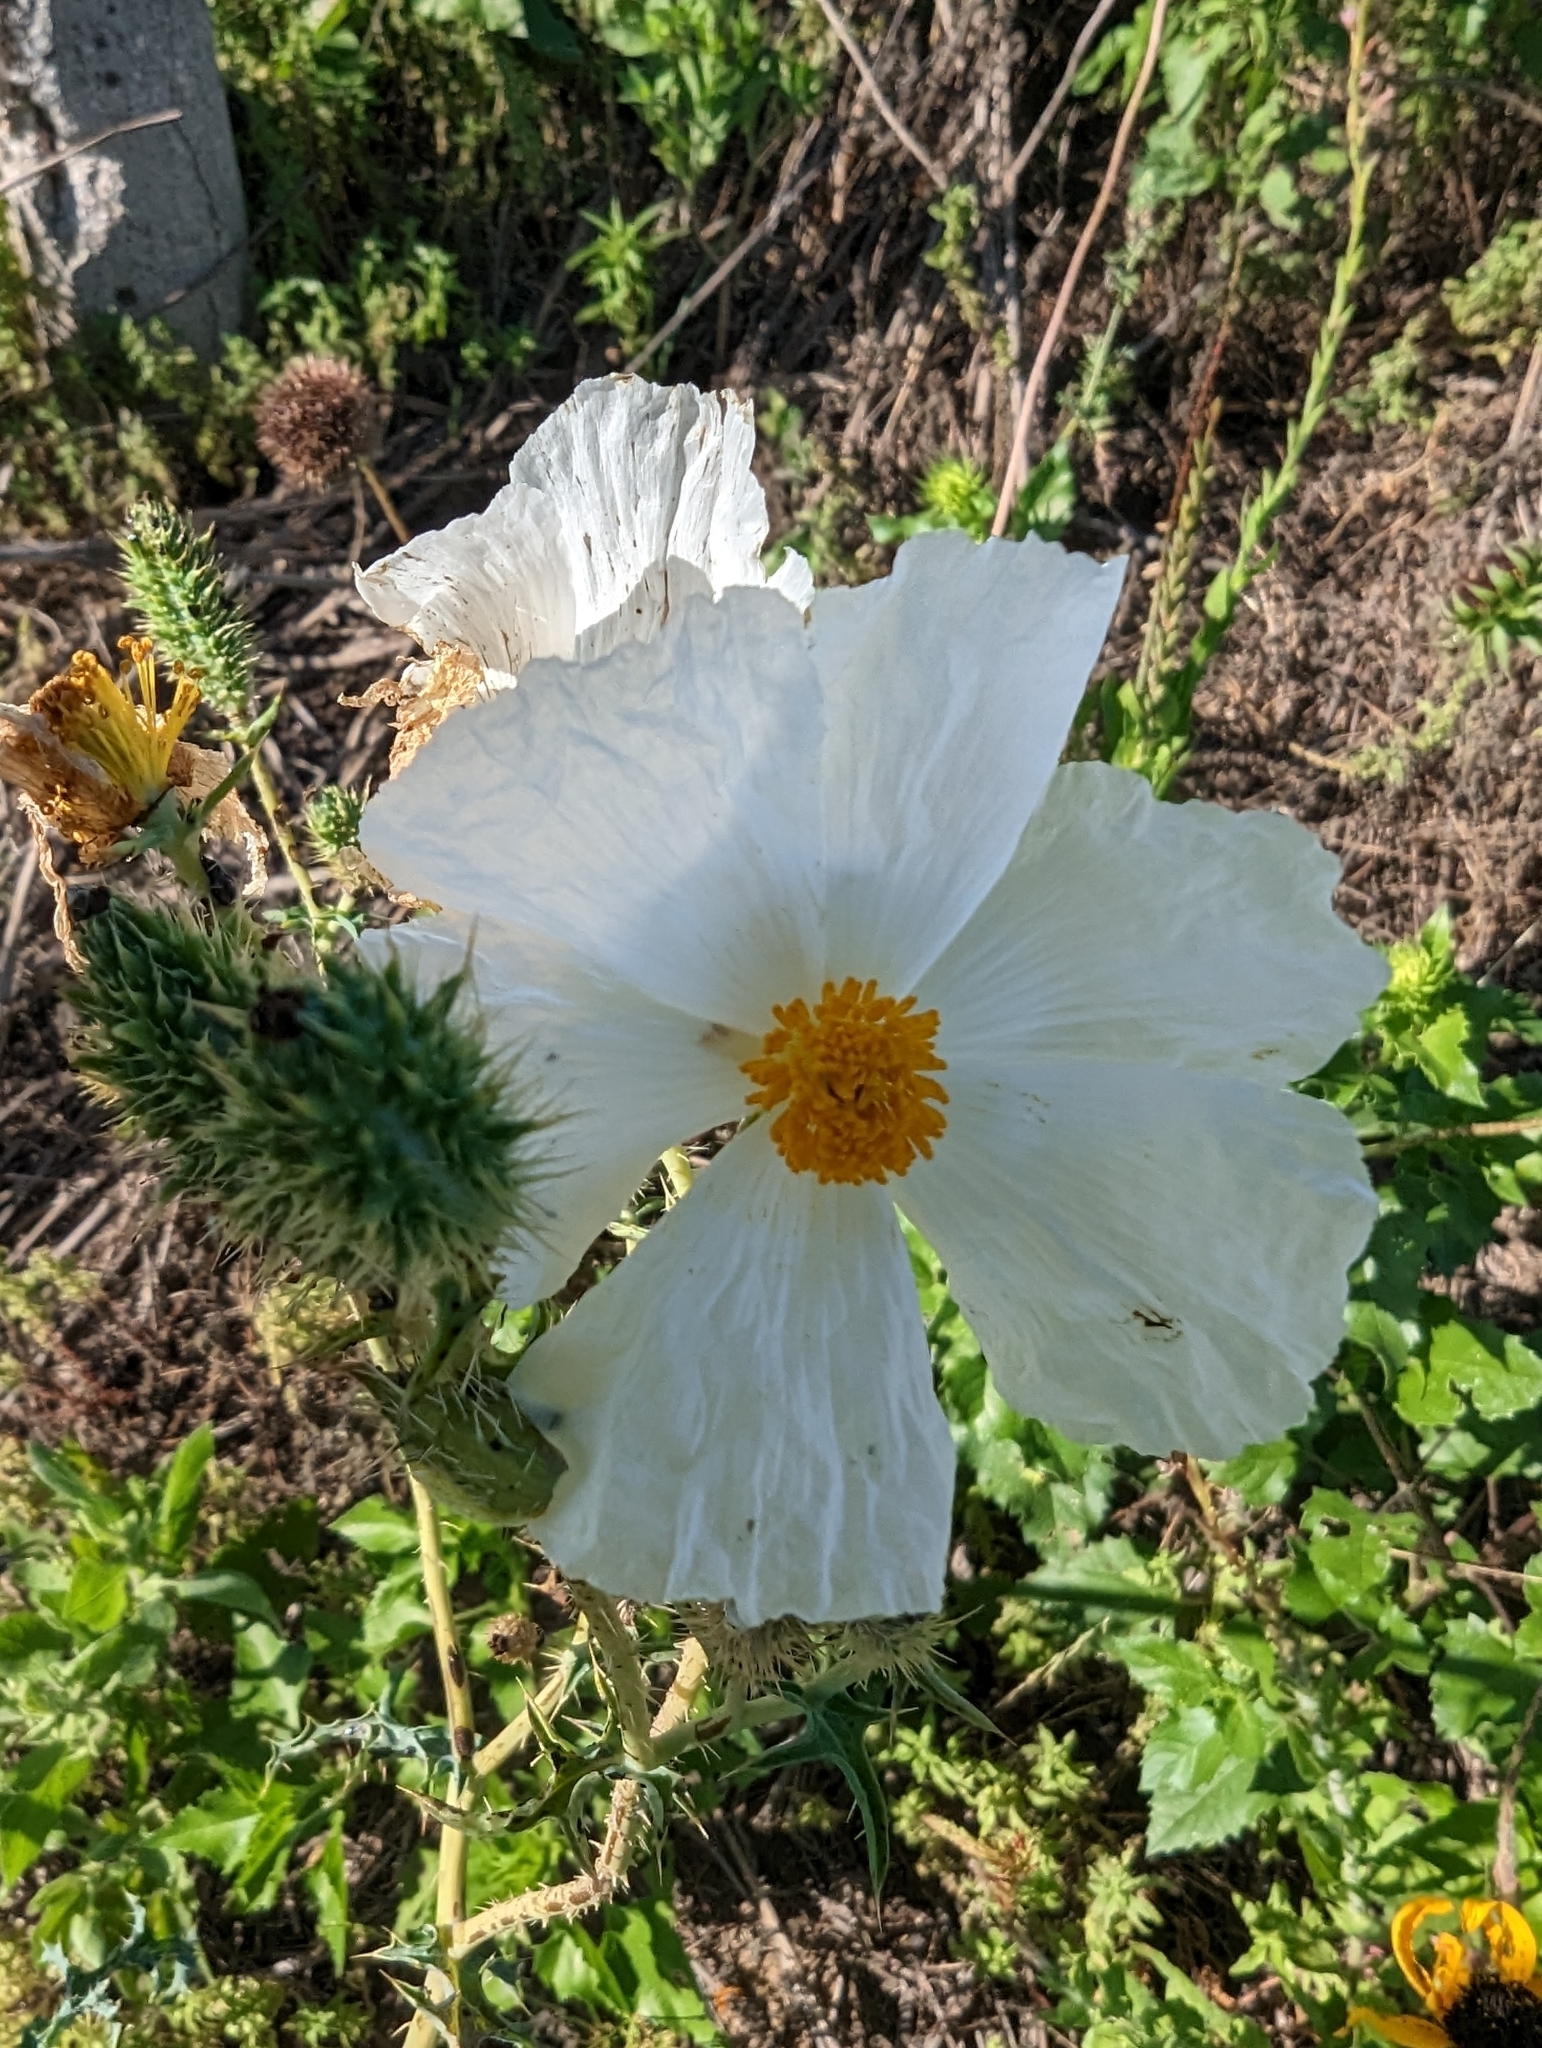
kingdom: Plantae
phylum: Tracheophyta
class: Magnoliopsida
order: Ranunculales
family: Papaveraceae
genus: Argemone
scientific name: Argemone albiflora
